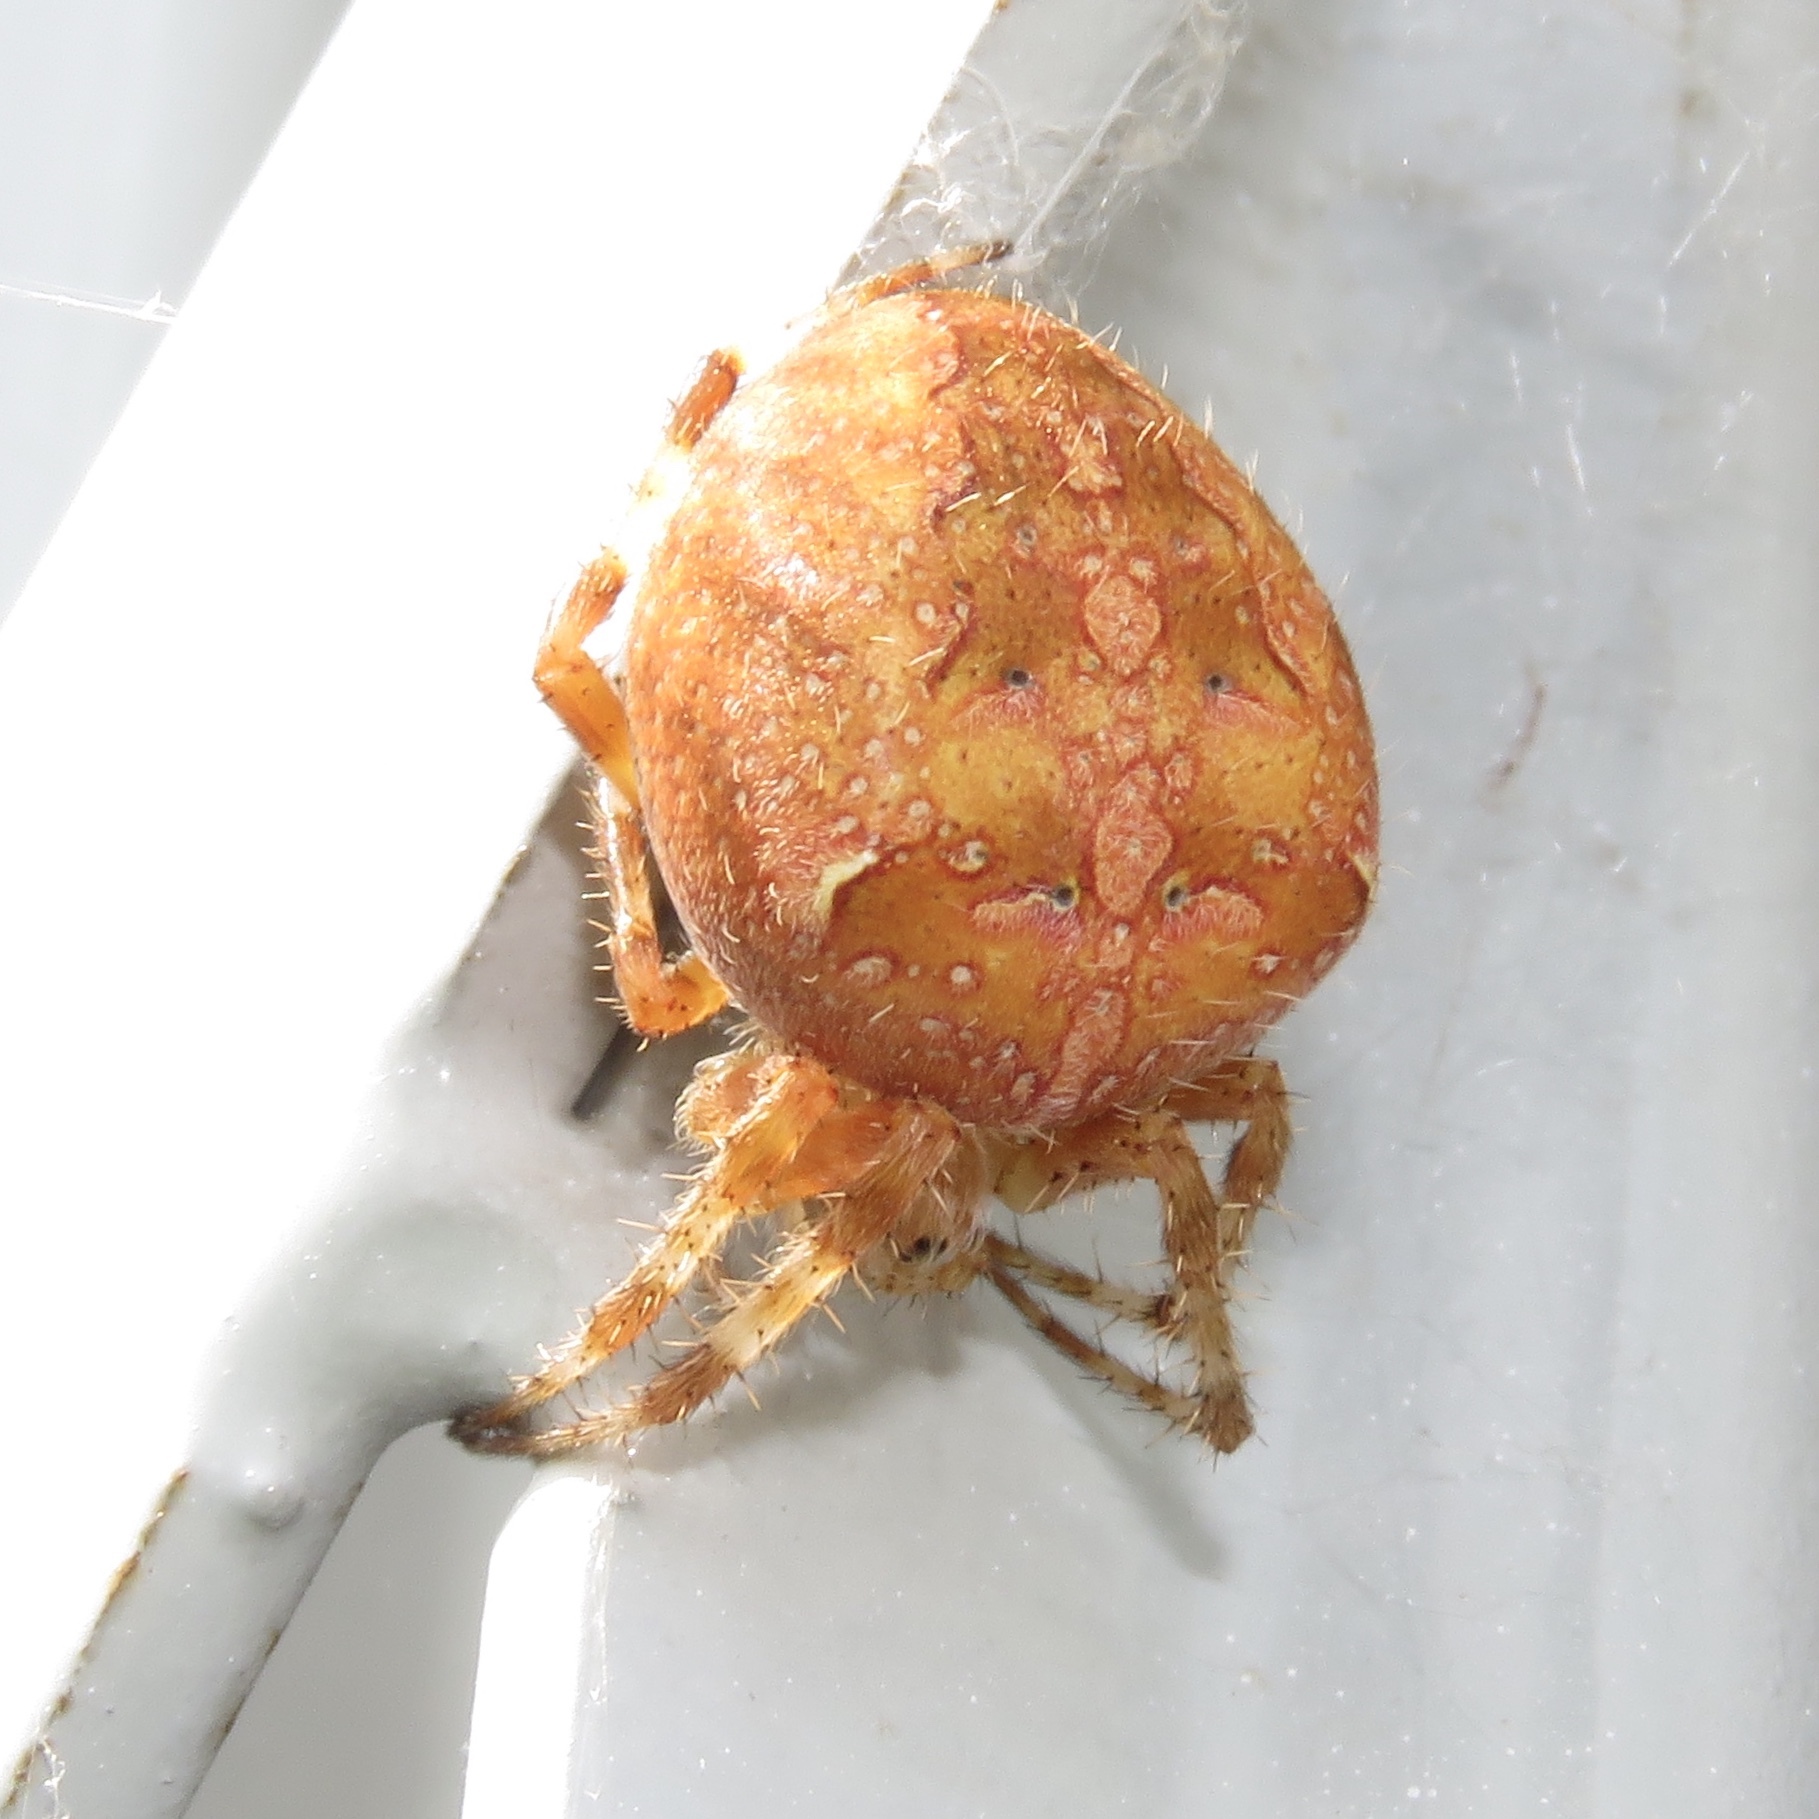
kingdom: Animalia
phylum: Arthropoda
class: Arachnida
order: Araneae
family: Araneidae
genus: Araneus
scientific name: Araneus diadematus
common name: Cross orbweaver
